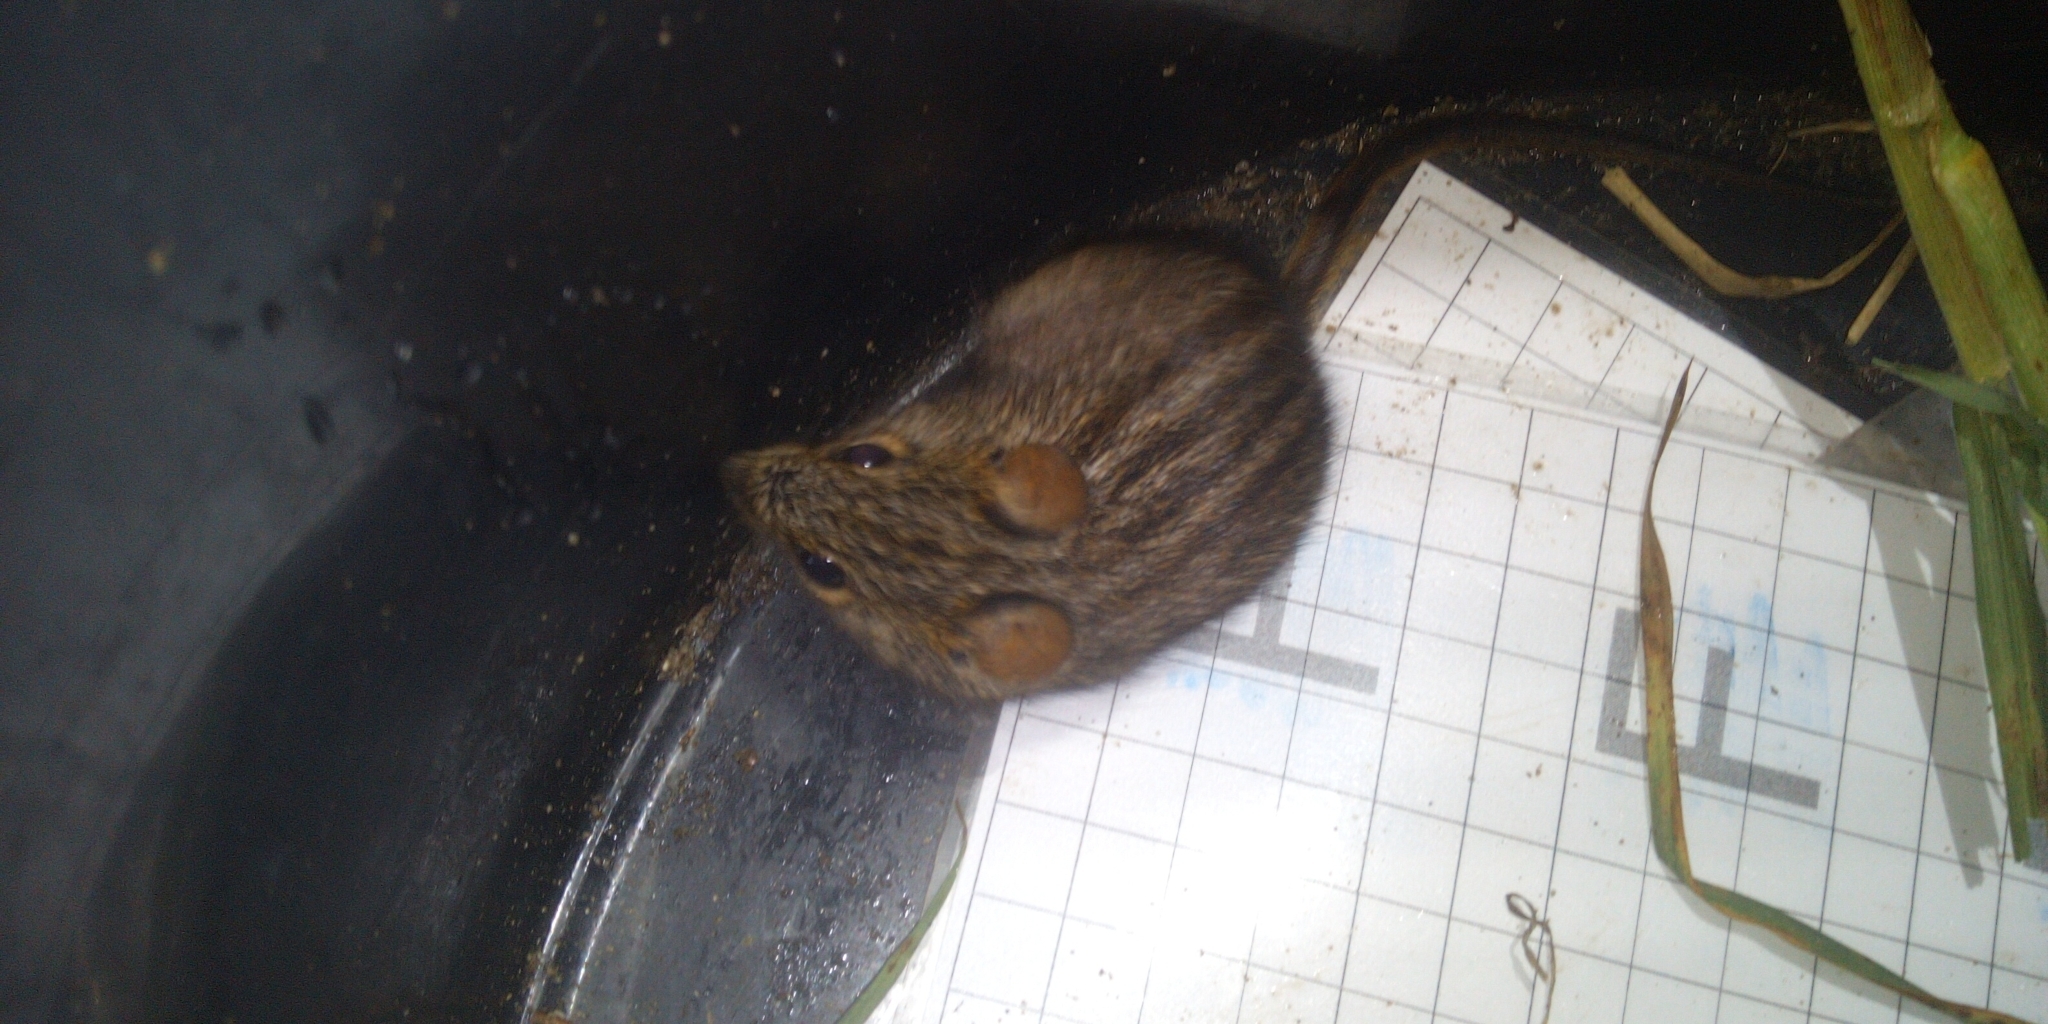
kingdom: Animalia
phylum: Chordata
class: Mammalia
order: Rodentia
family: Muridae
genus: Rhabdomys
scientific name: Rhabdomys pumilio
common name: Xeric four-striped grass rat
